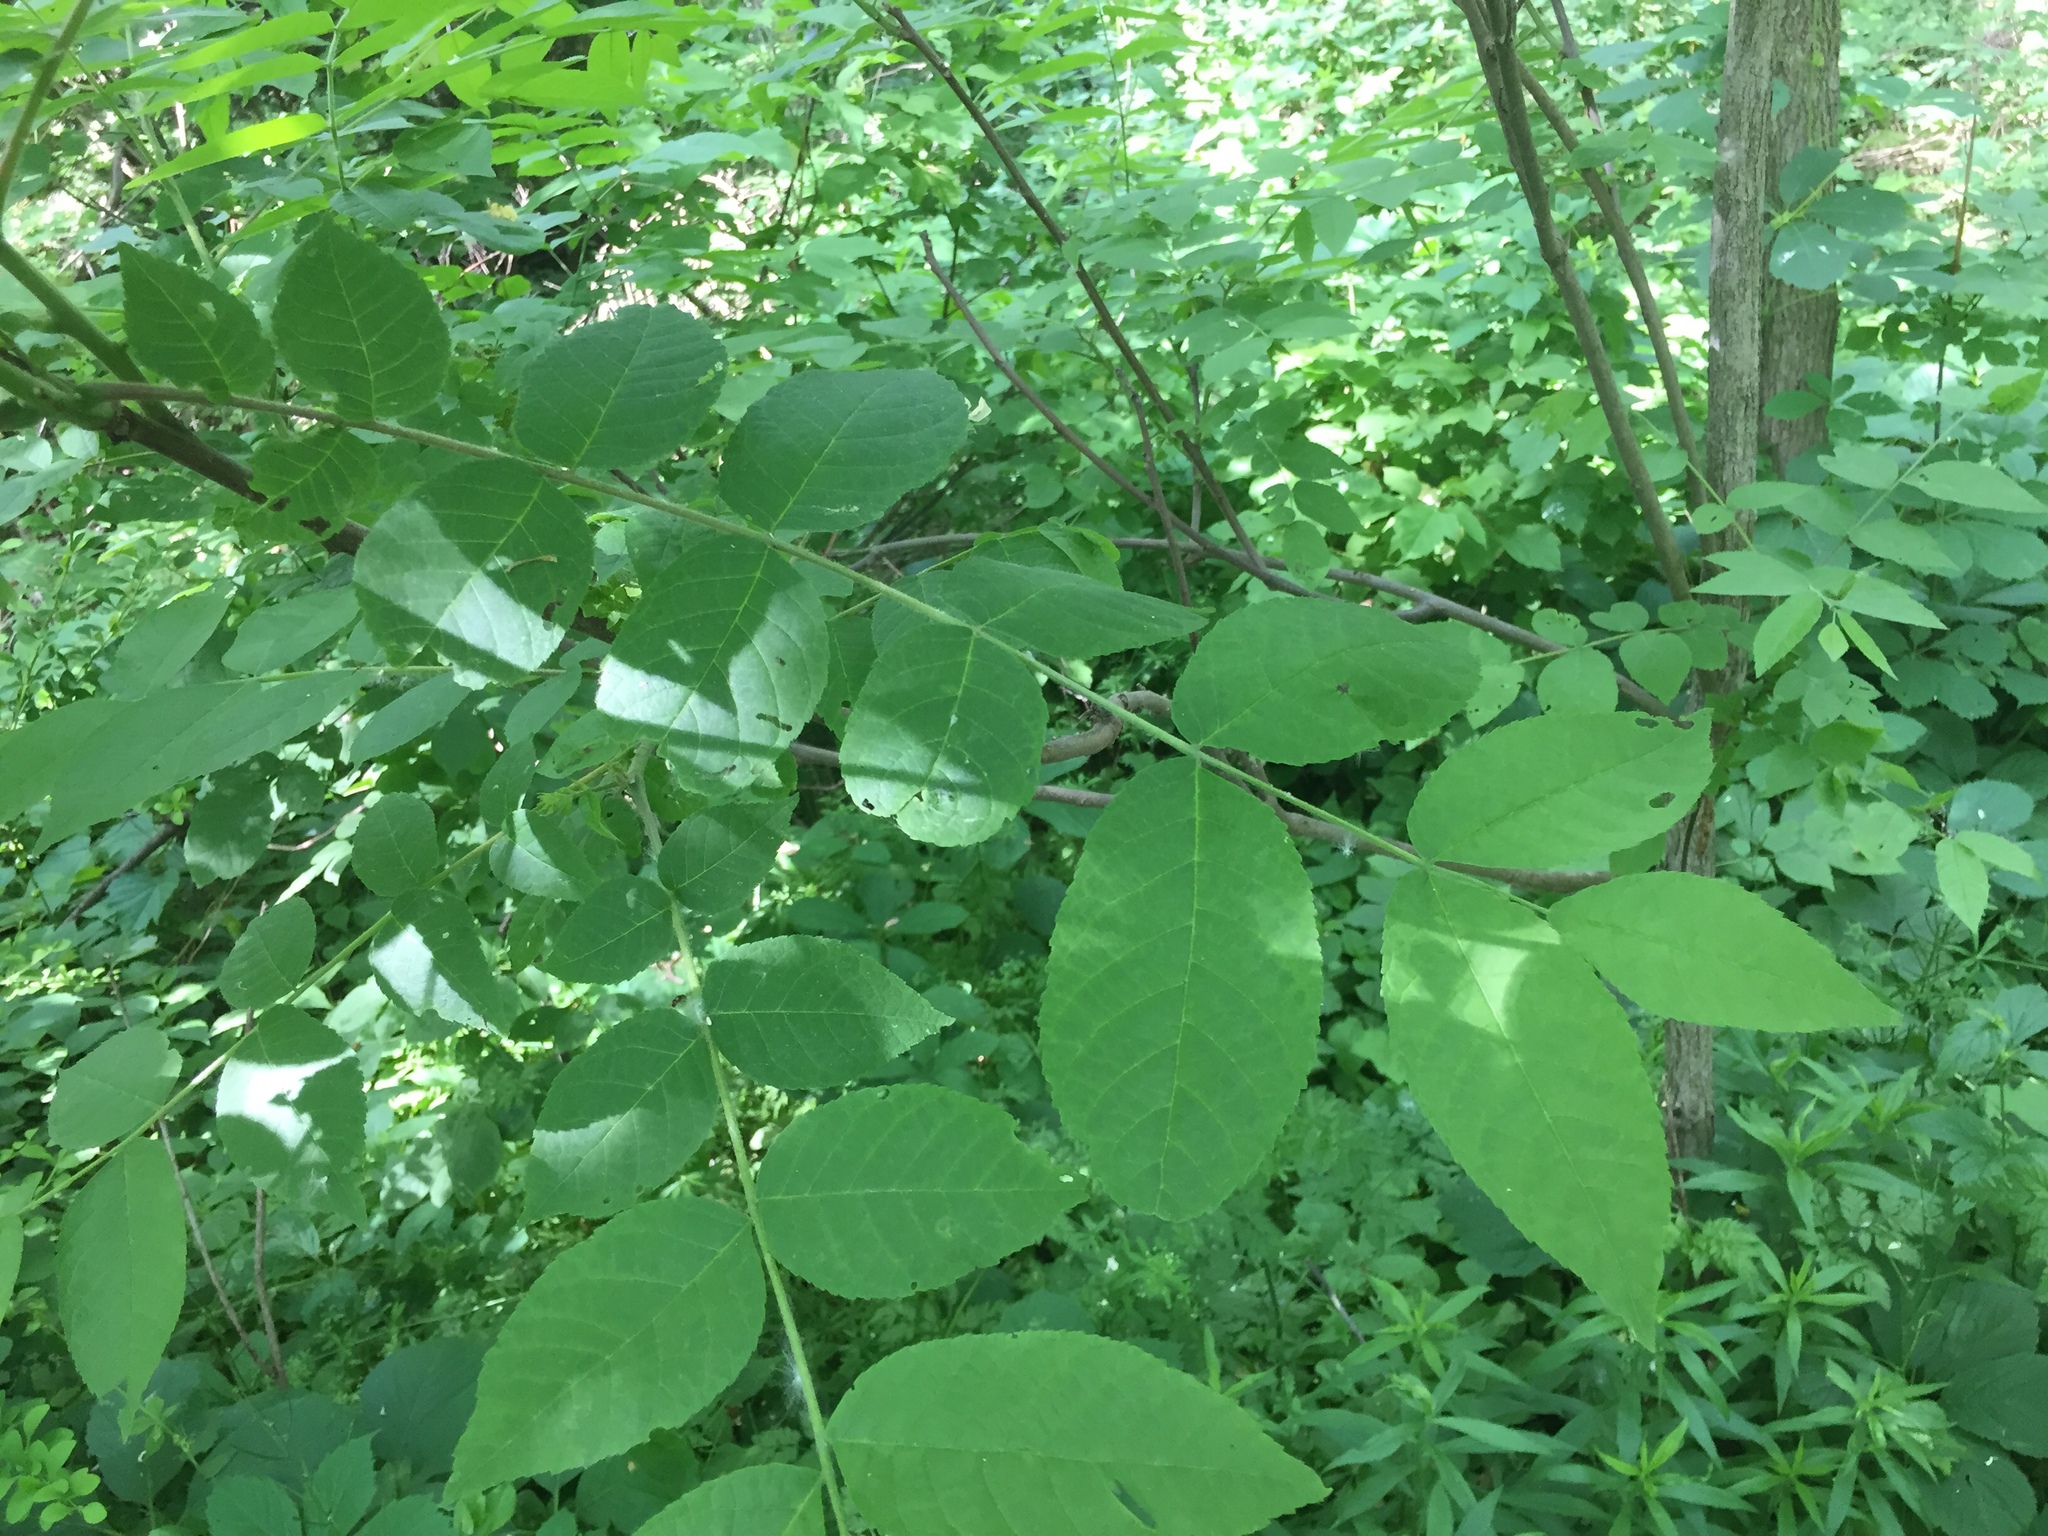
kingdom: Plantae
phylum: Tracheophyta
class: Magnoliopsida
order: Fagales
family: Juglandaceae
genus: Juglans
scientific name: Juglans nigra
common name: Black walnut
